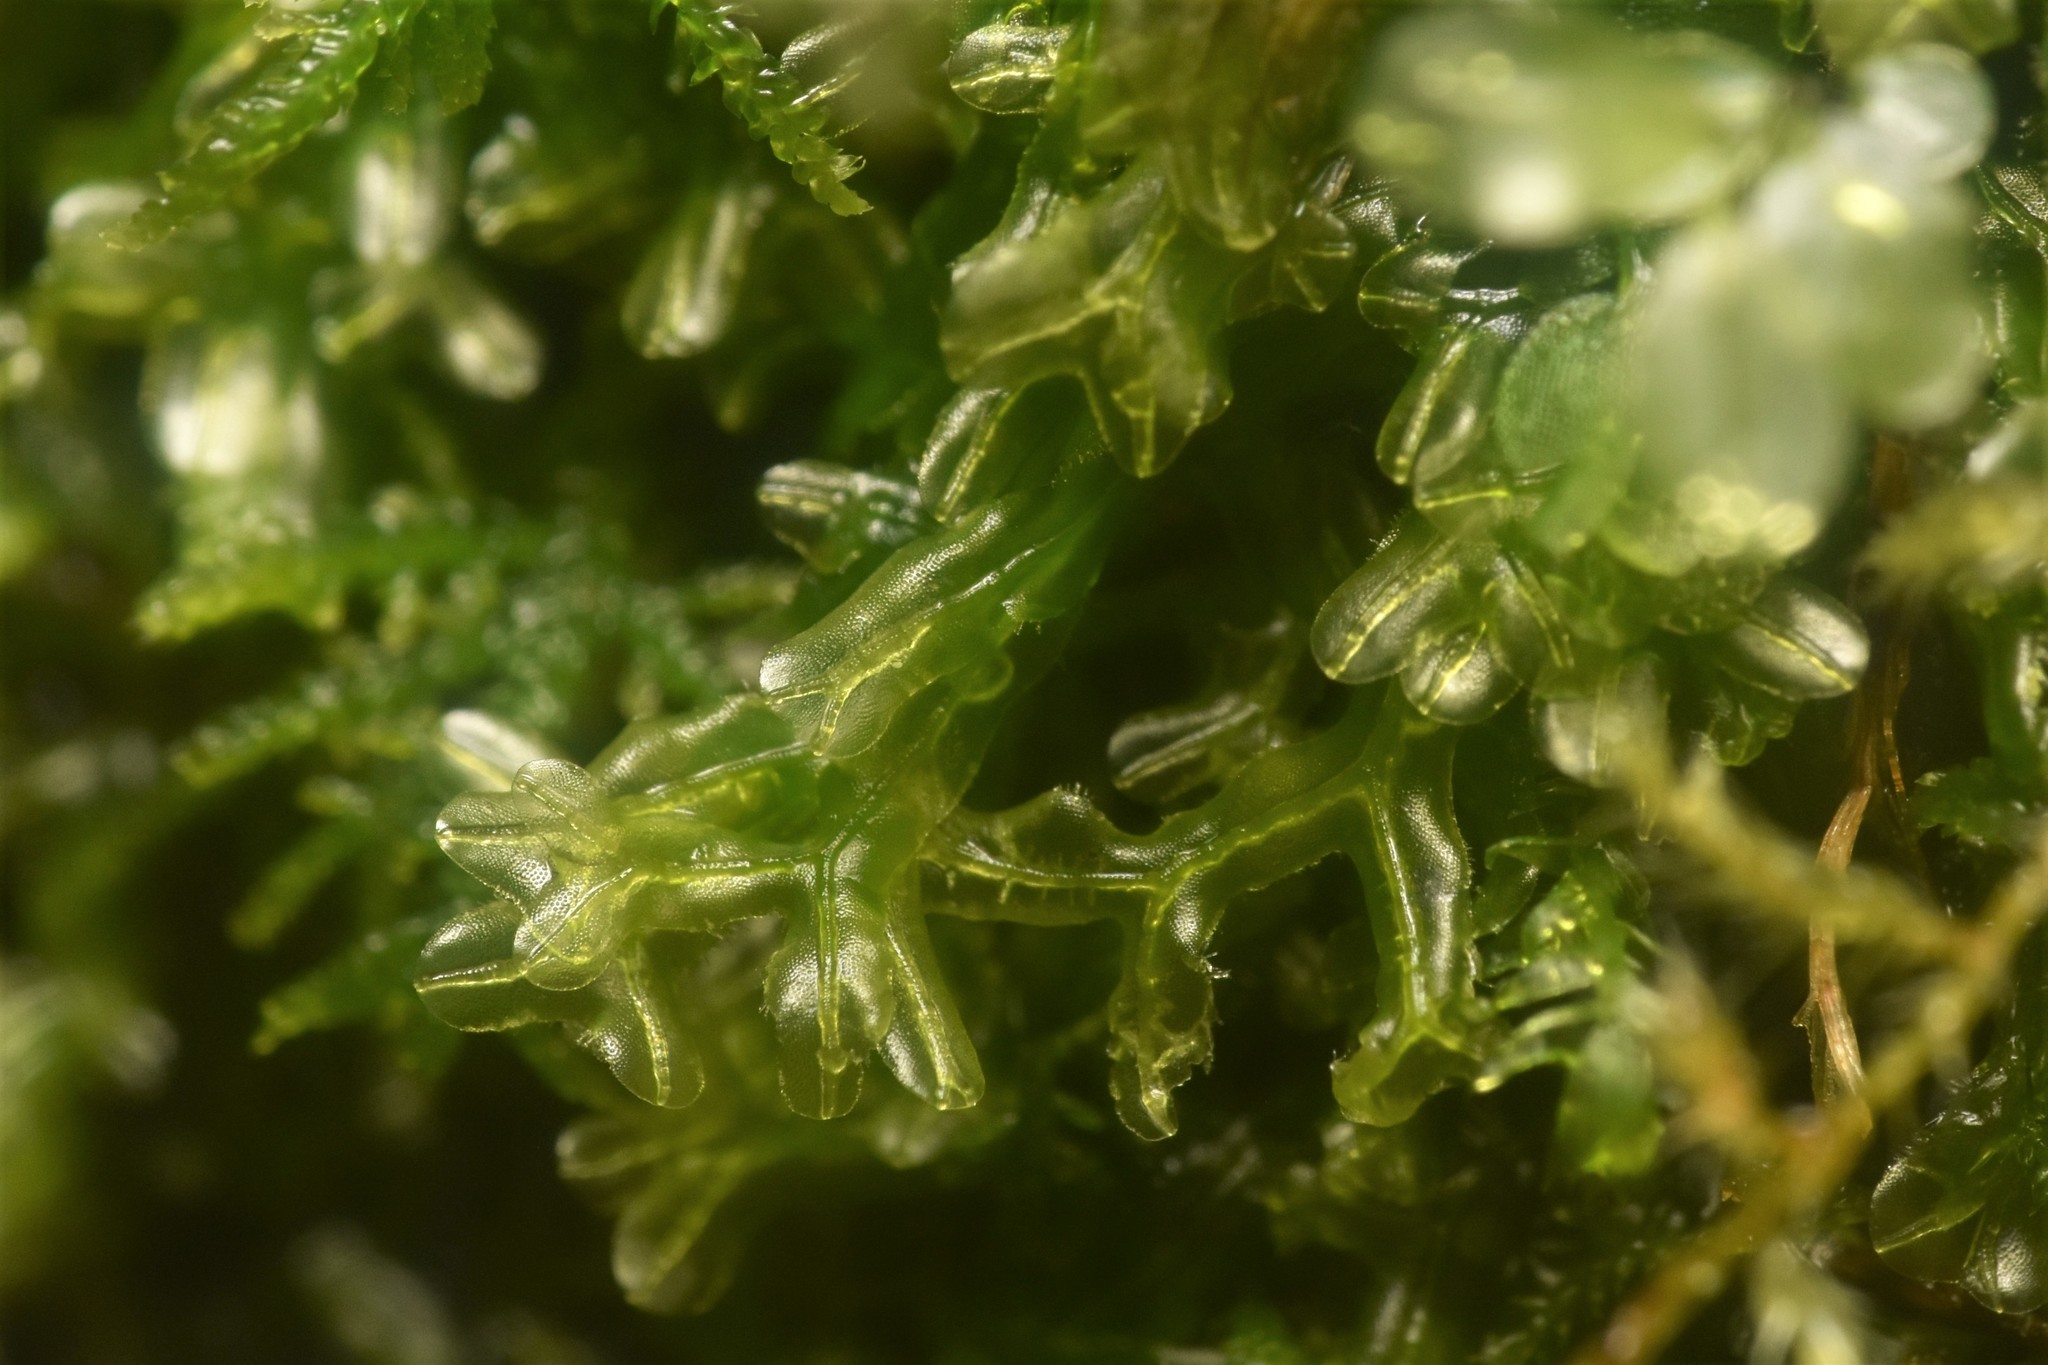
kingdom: Plantae
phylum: Marchantiophyta
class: Jungermanniopsida
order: Metzgeriales
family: Metzgeriaceae
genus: Metzgeria
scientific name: Metzgeria conjugata
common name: Rock veilwort
